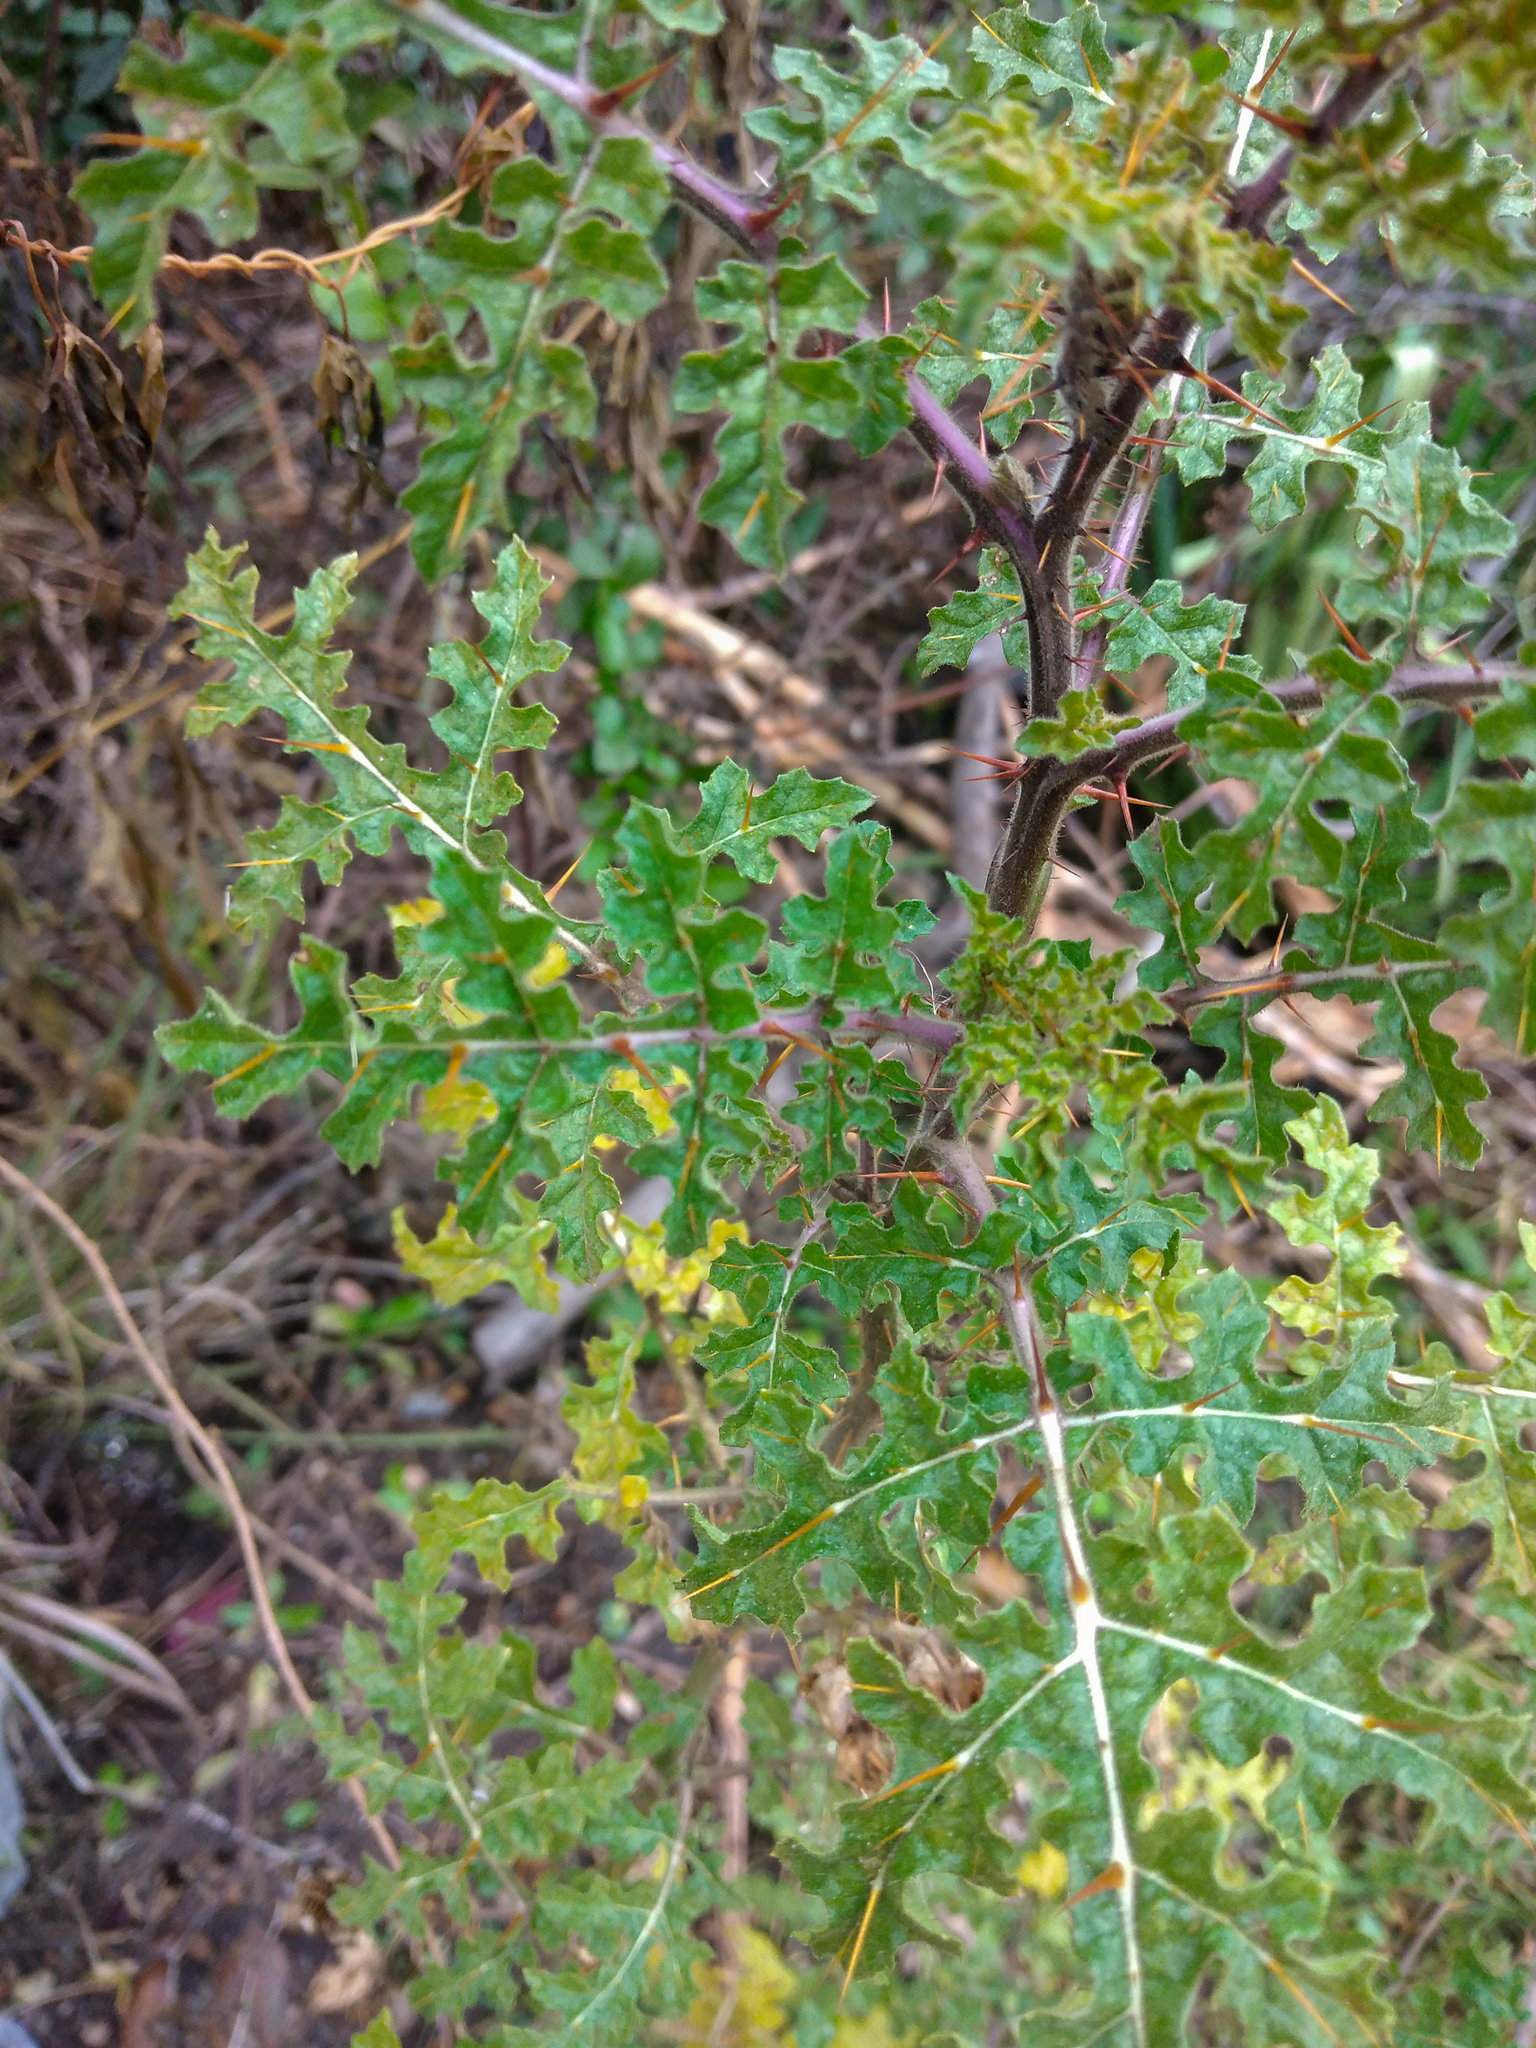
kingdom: Plantae
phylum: Tracheophyta
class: Magnoliopsida
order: Solanales
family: Solanaceae
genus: Solanum
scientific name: Solanum sisymbriifolium
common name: Red buffalo-bur
